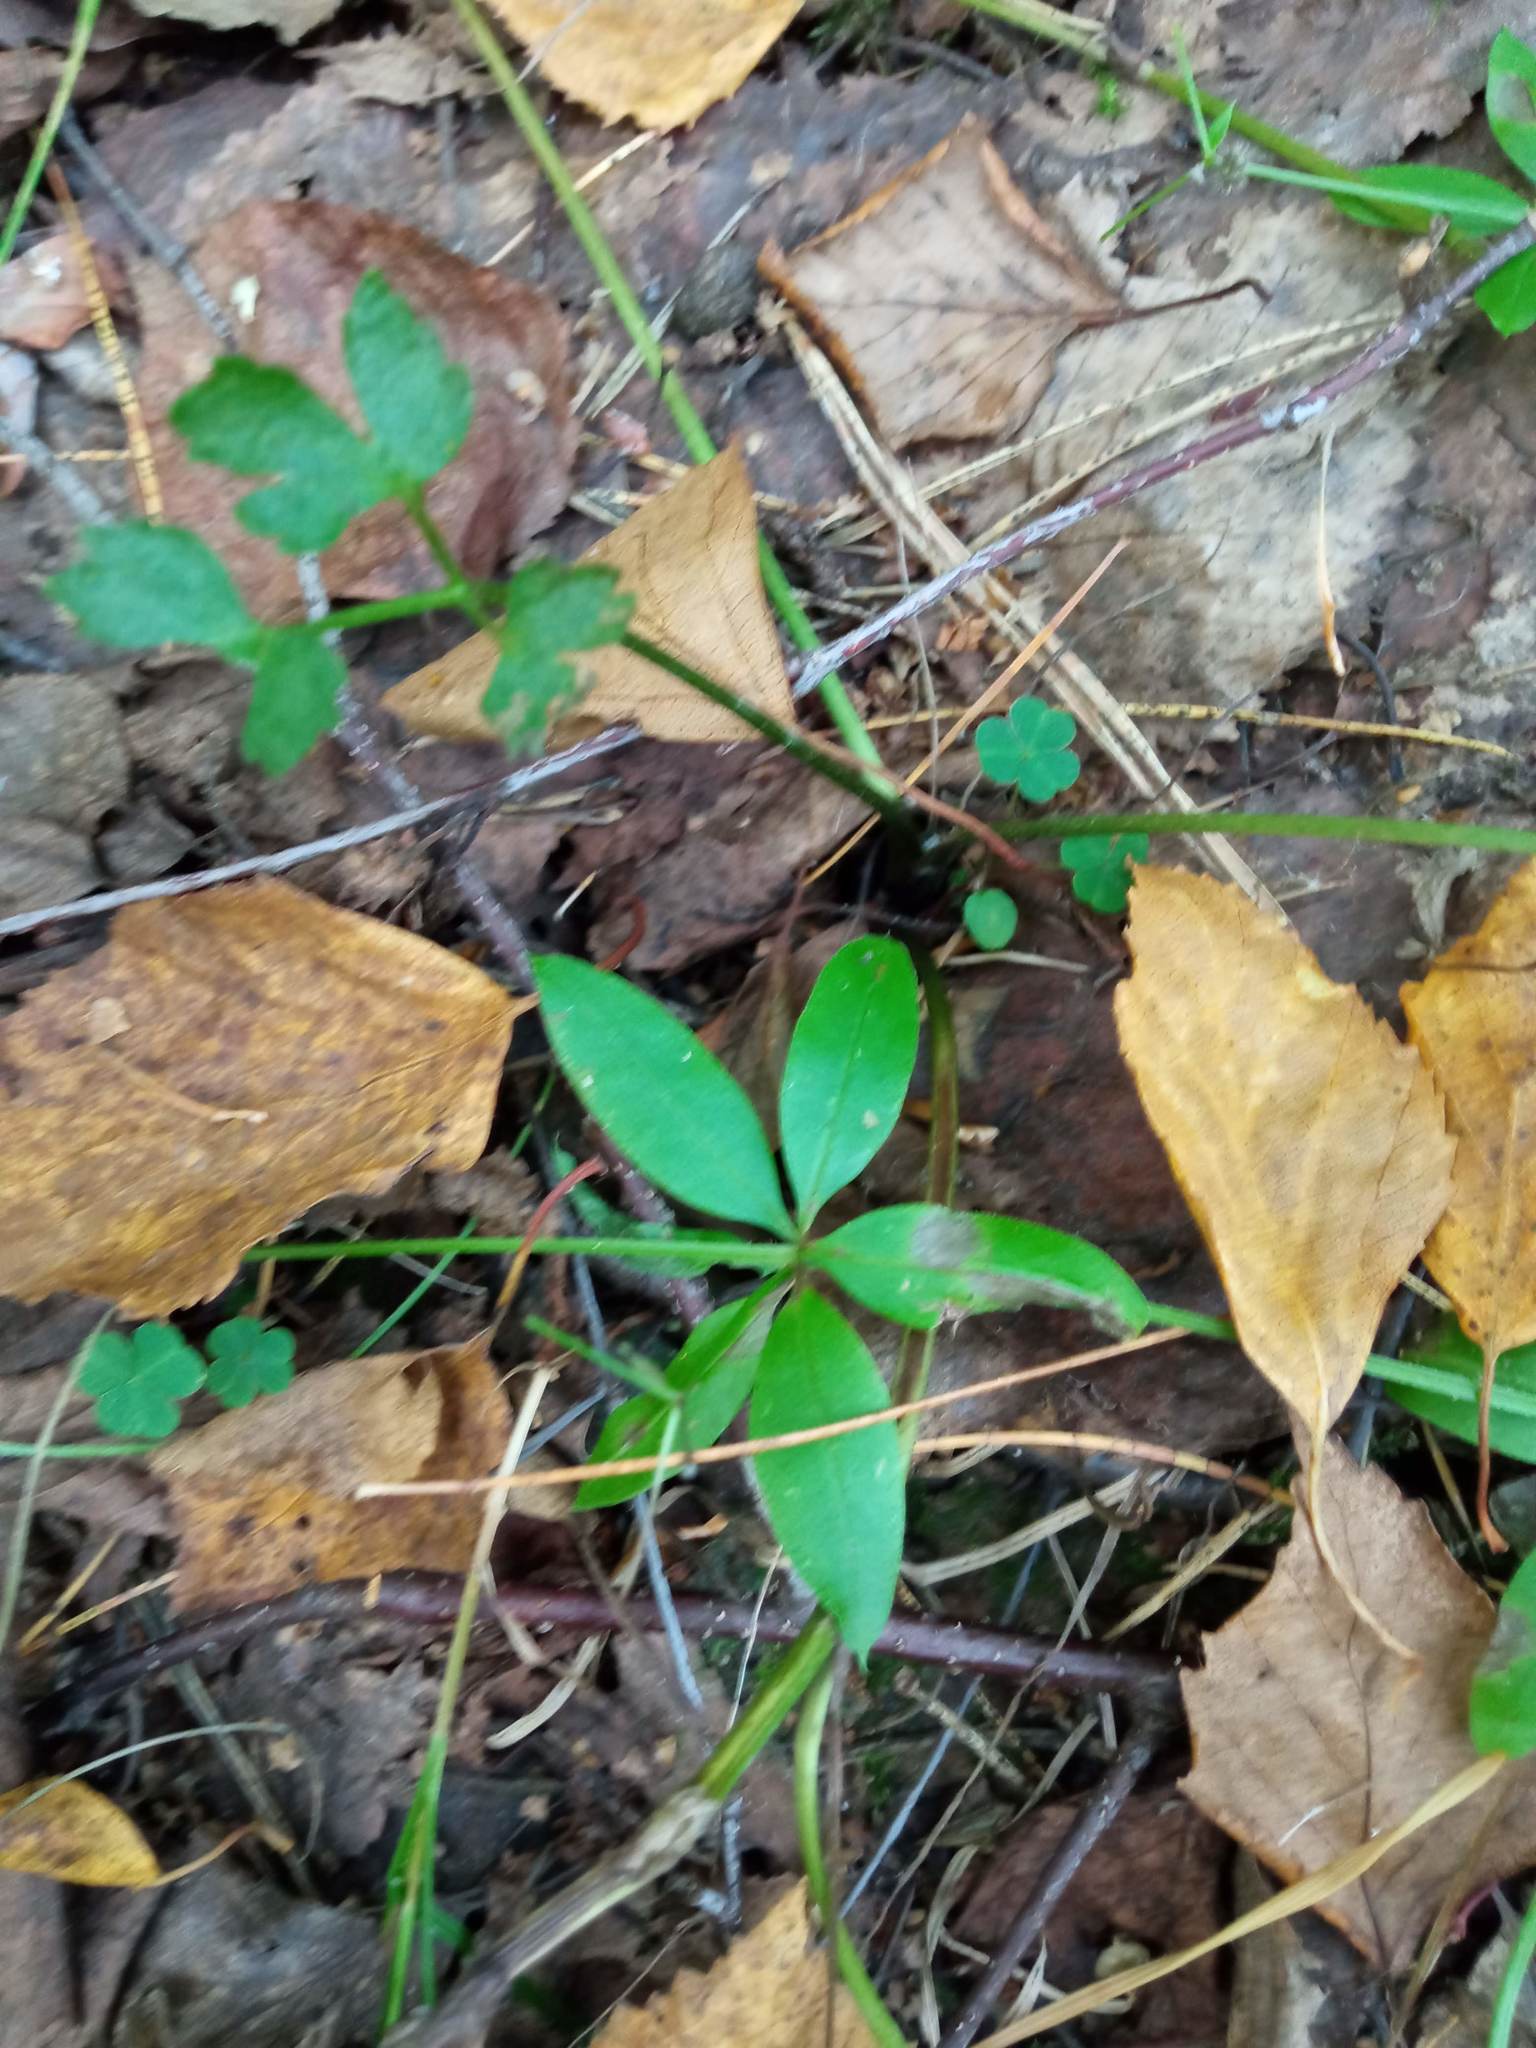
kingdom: Plantae
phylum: Tracheophyta
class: Magnoliopsida
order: Gentianales
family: Rubiaceae
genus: Galium
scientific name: Galium triflorum
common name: Fragrant bedstraw
